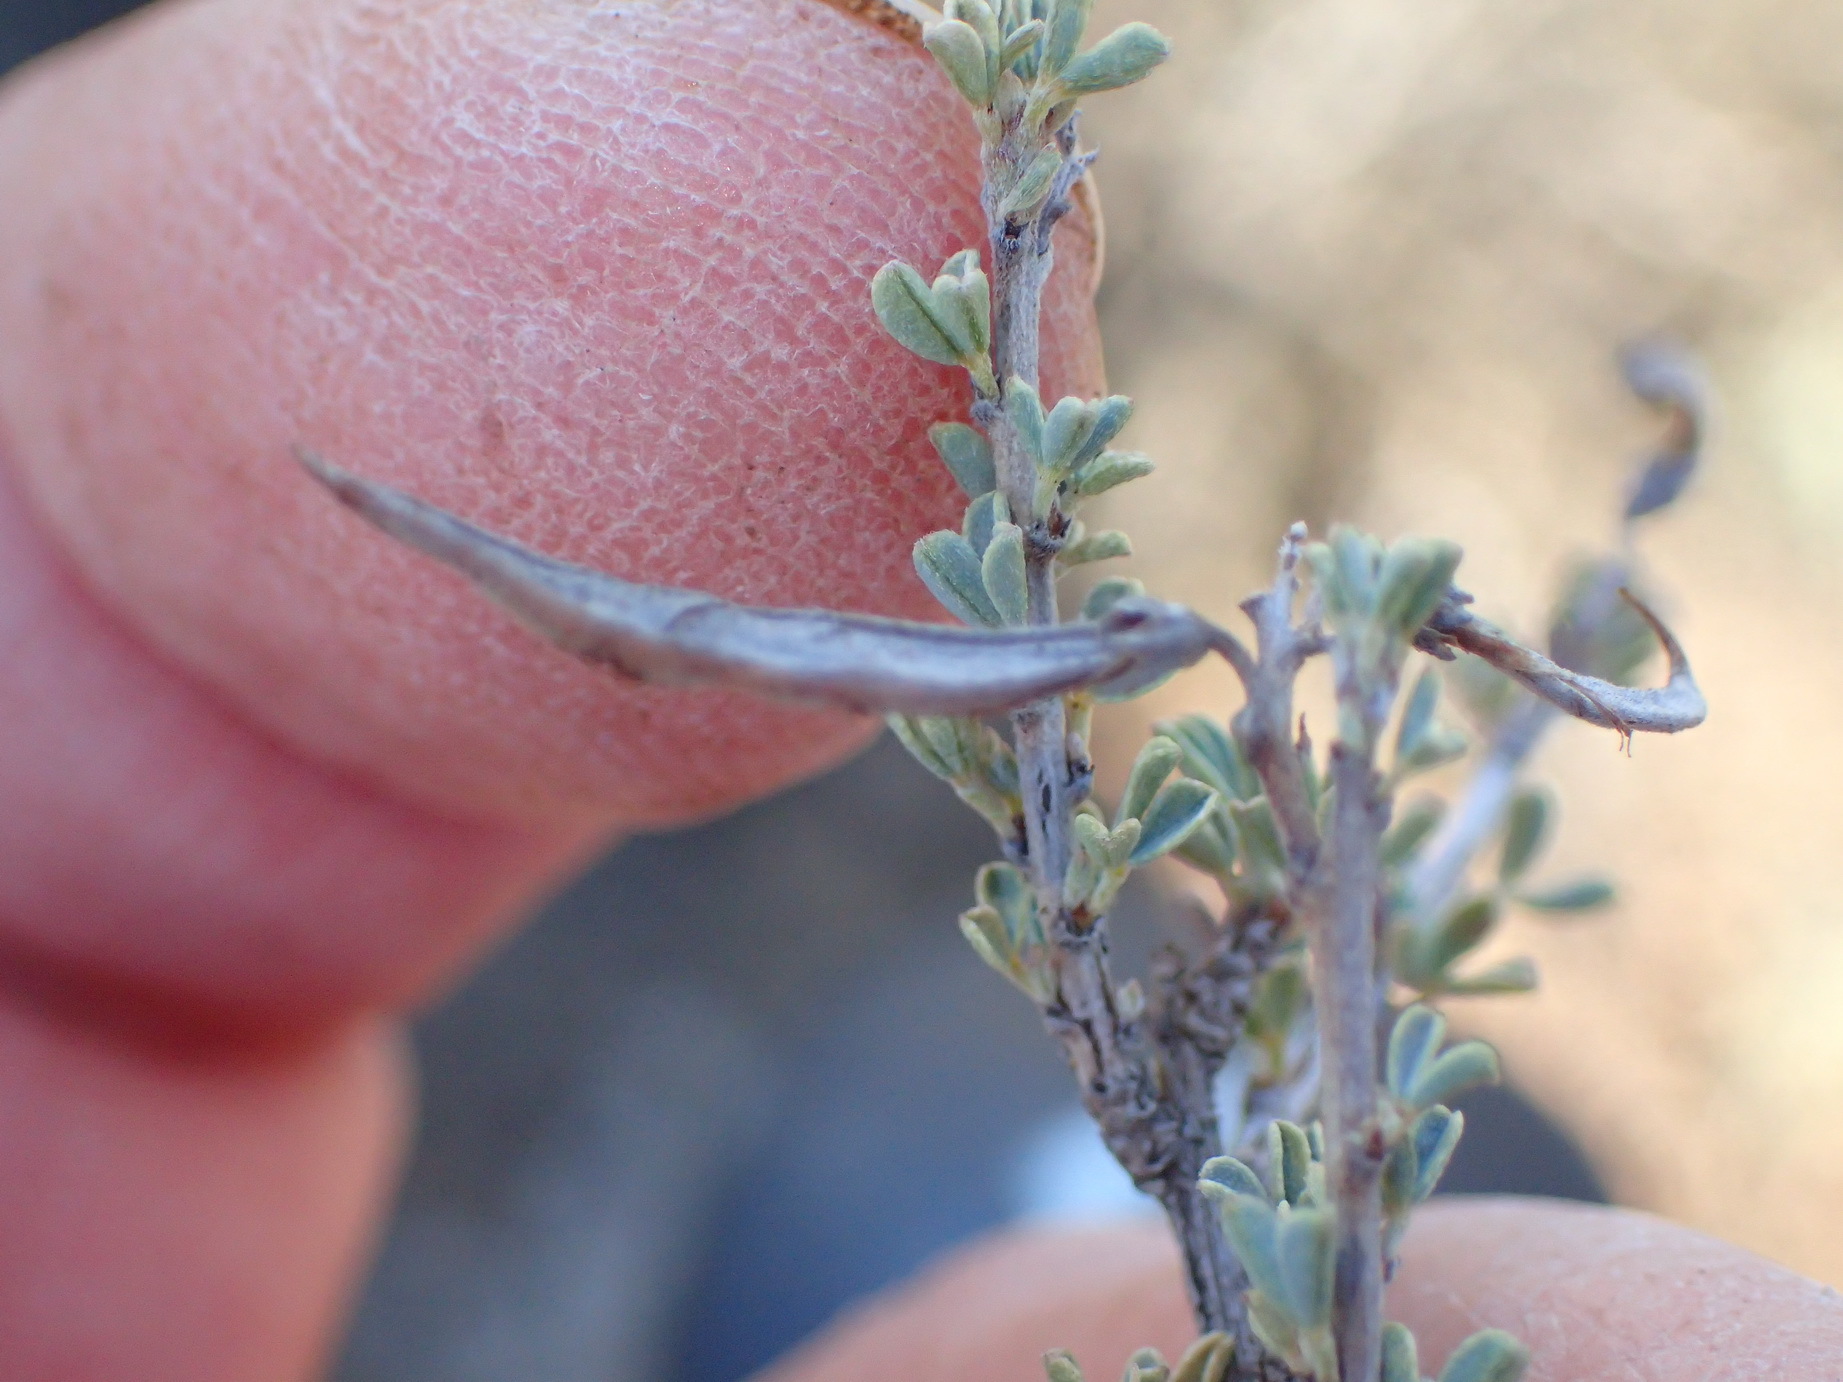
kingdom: Plantae
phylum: Tracheophyta
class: Magnoliopsida
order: Fabales
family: Fabaceae
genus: Indigofera
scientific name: Indigofera obcordata
